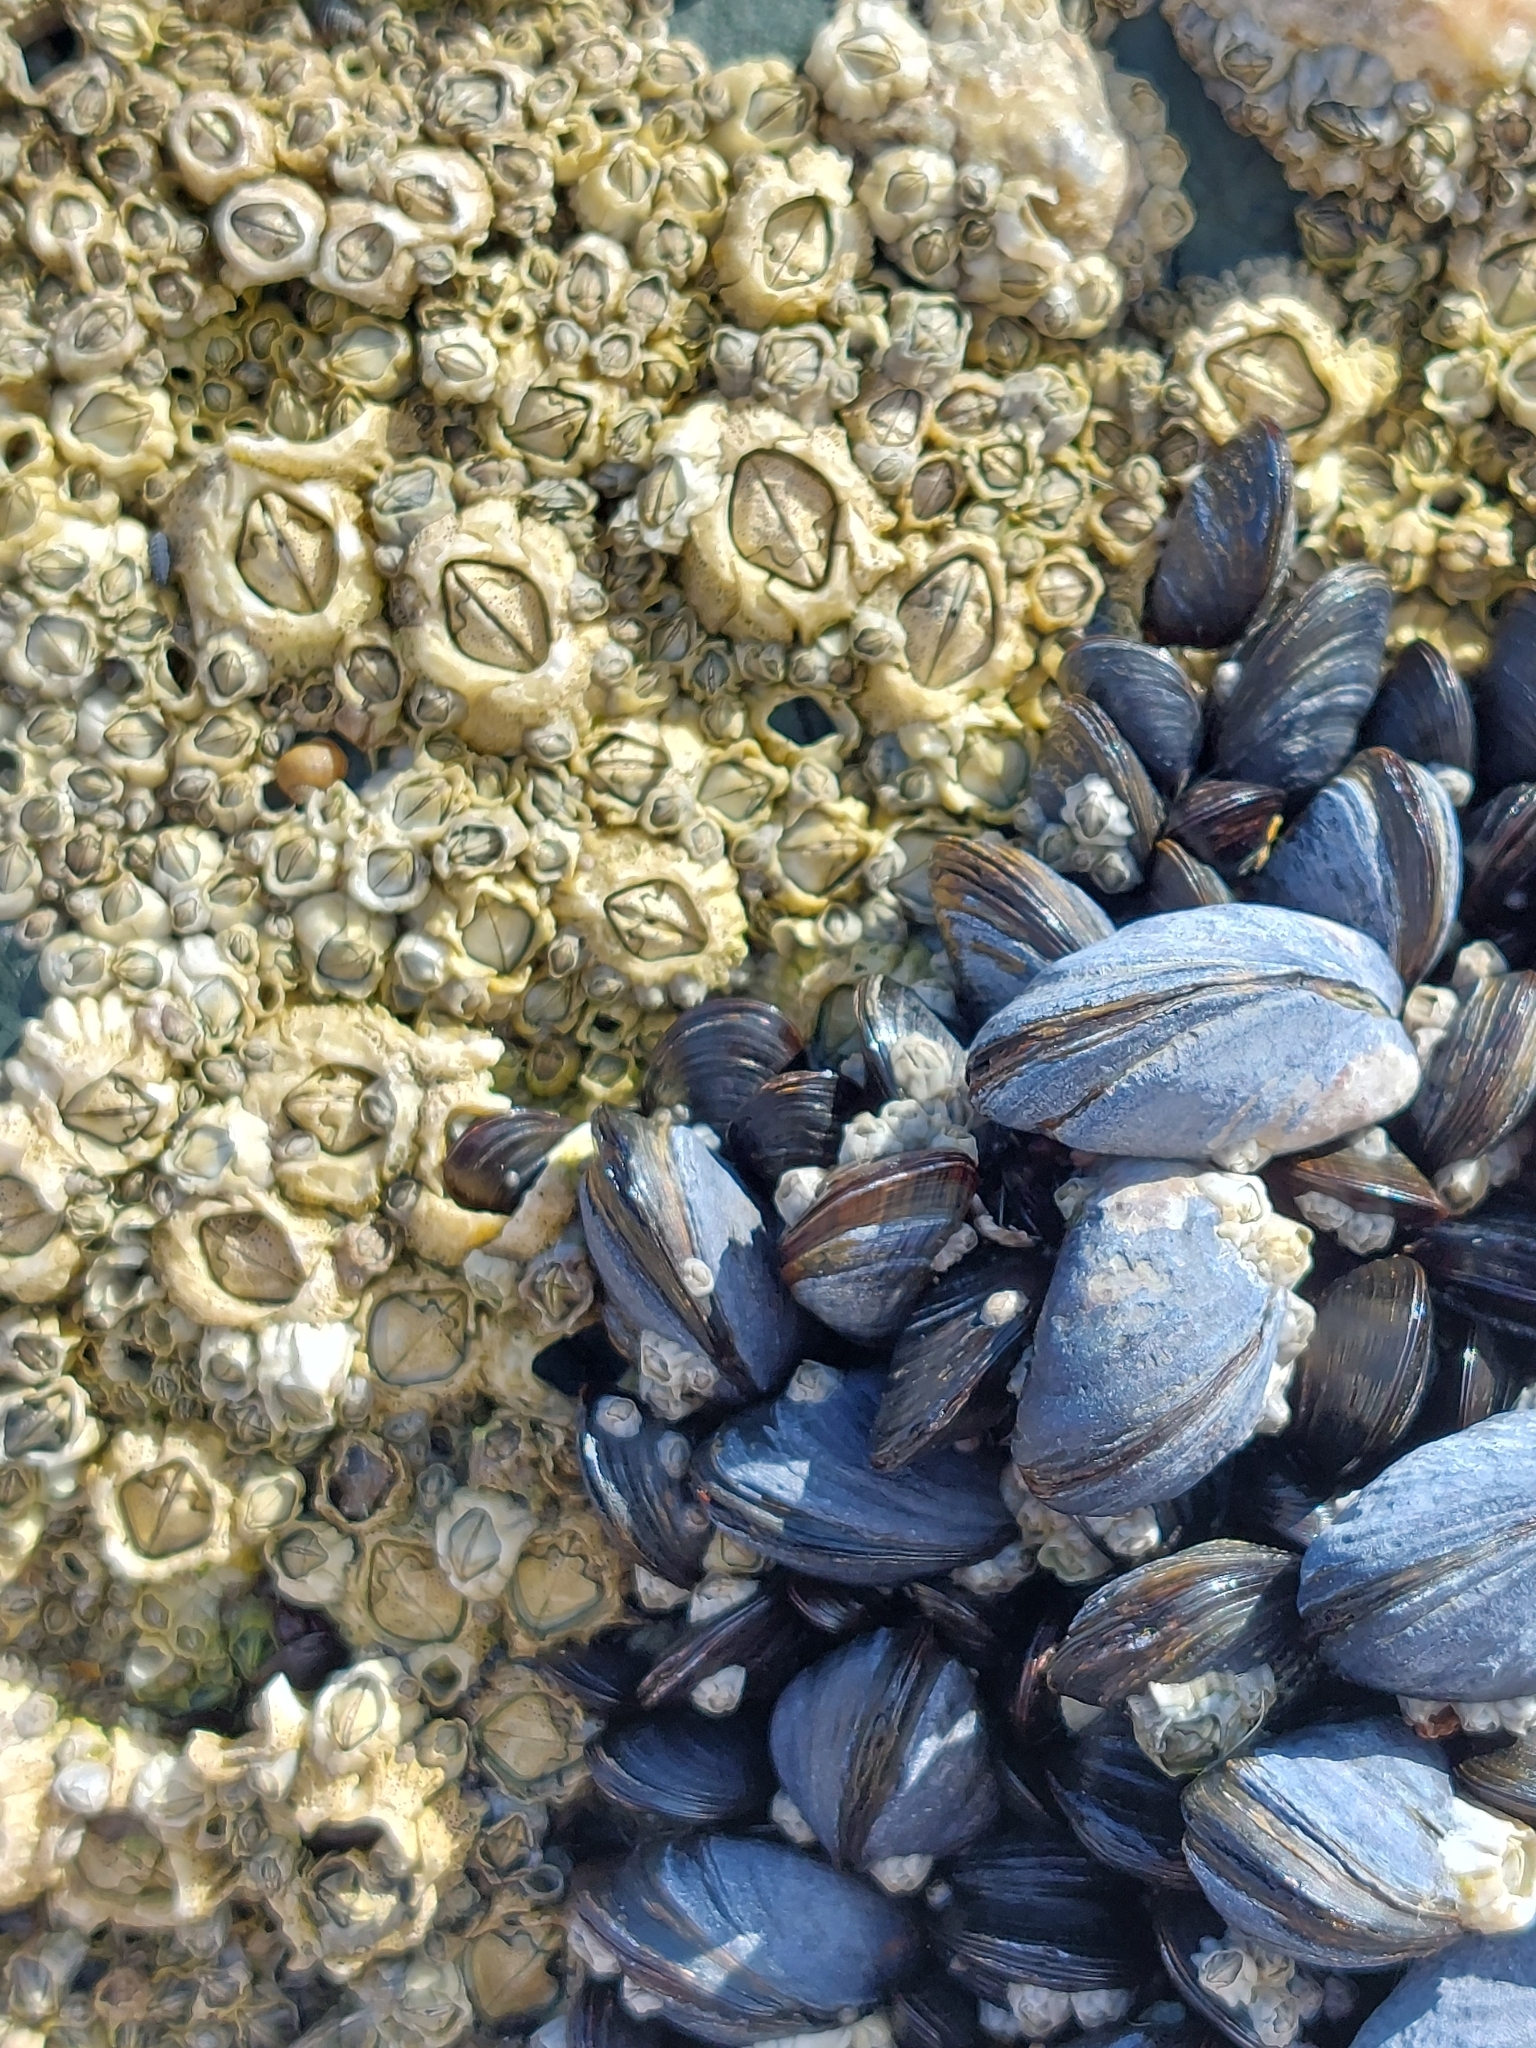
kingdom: Animalia
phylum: Mollusca
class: Bivalvia
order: Mytilida
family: Mytilidae
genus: Mytilus
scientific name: Mytilus edulis
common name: Blue mussel
